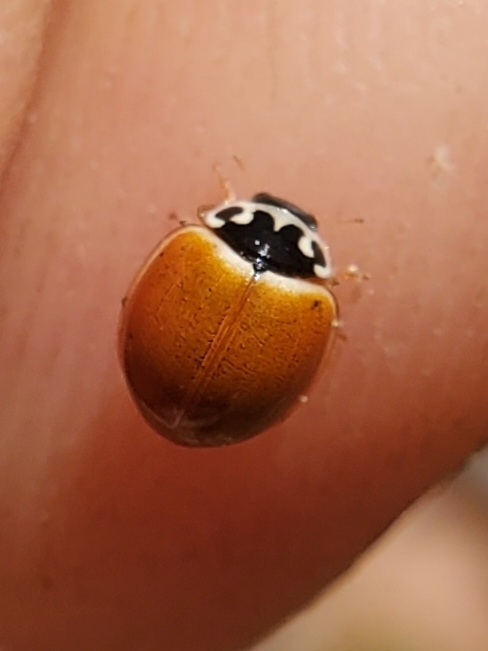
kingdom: Animalia
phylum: Arthropoda
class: Insecta
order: Coleoptera
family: Coccinellidae
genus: Cycloneda
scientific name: Cycloneda munda
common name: Polished lady beetle
